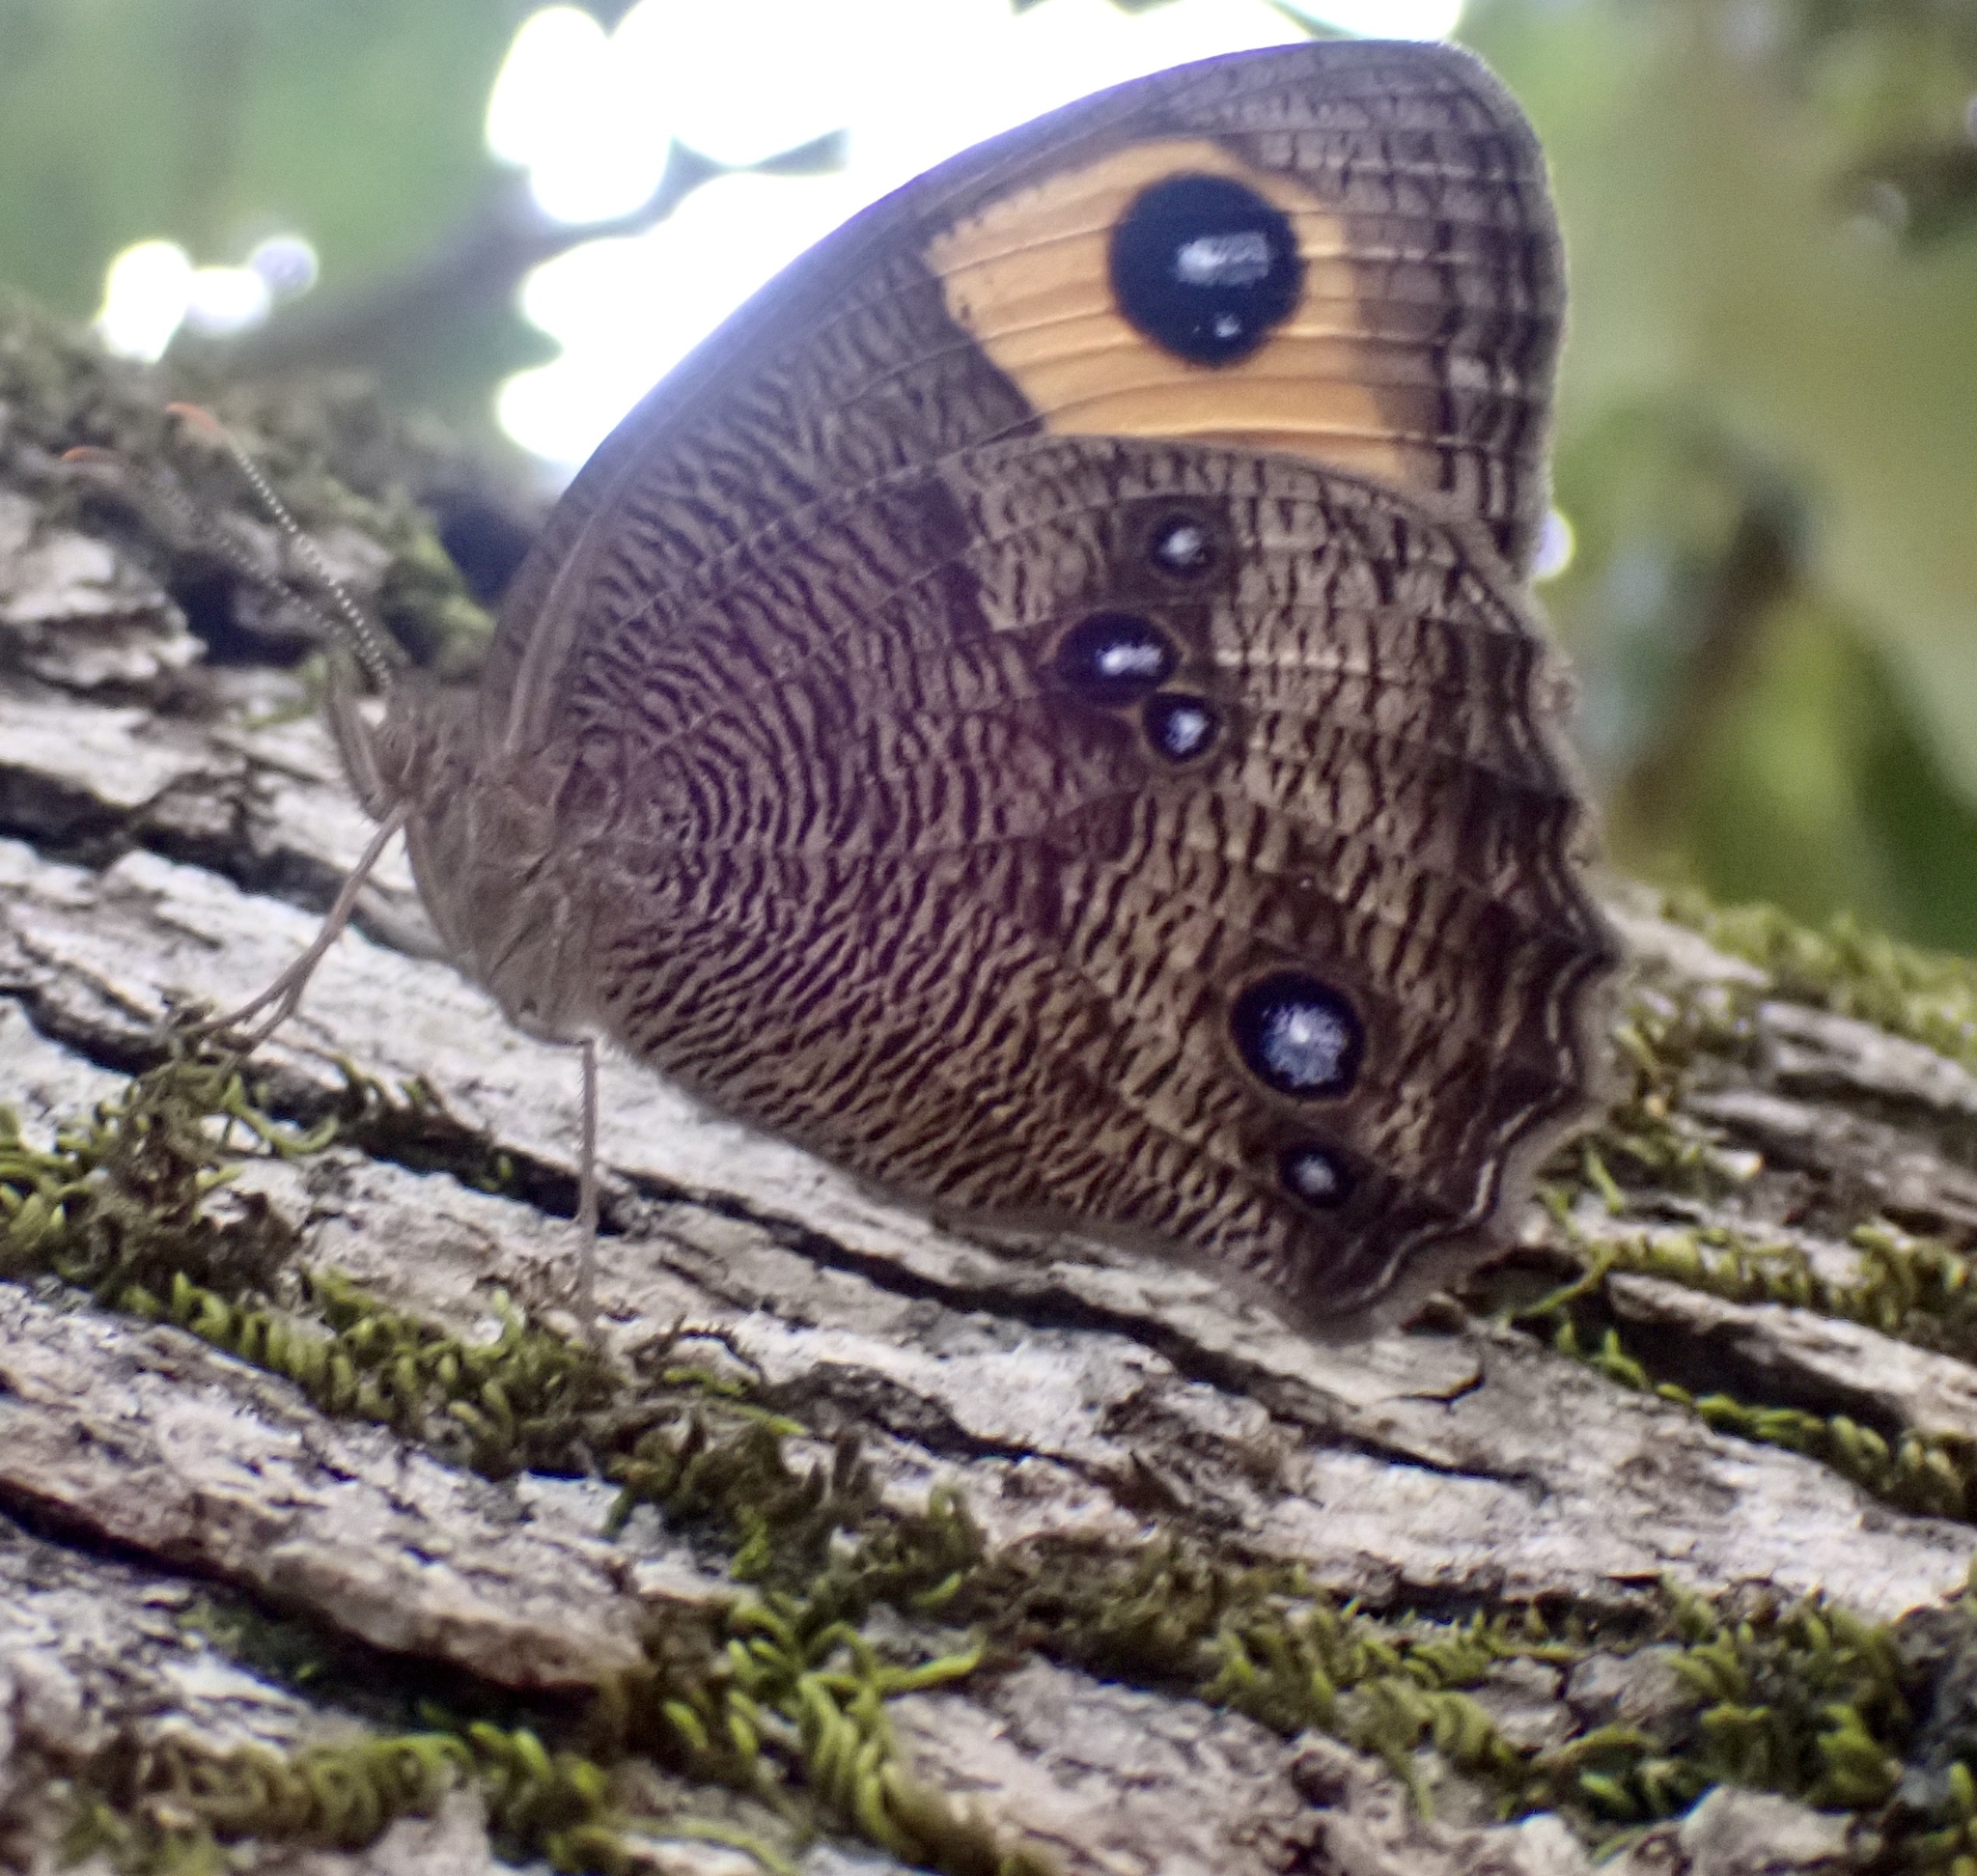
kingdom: Animalia
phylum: Arthropoda
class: Insecta
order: Lepidoptera
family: Nymphalidae
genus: Cercyonis
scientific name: Cercyonis pegala
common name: Common wood-nymph
